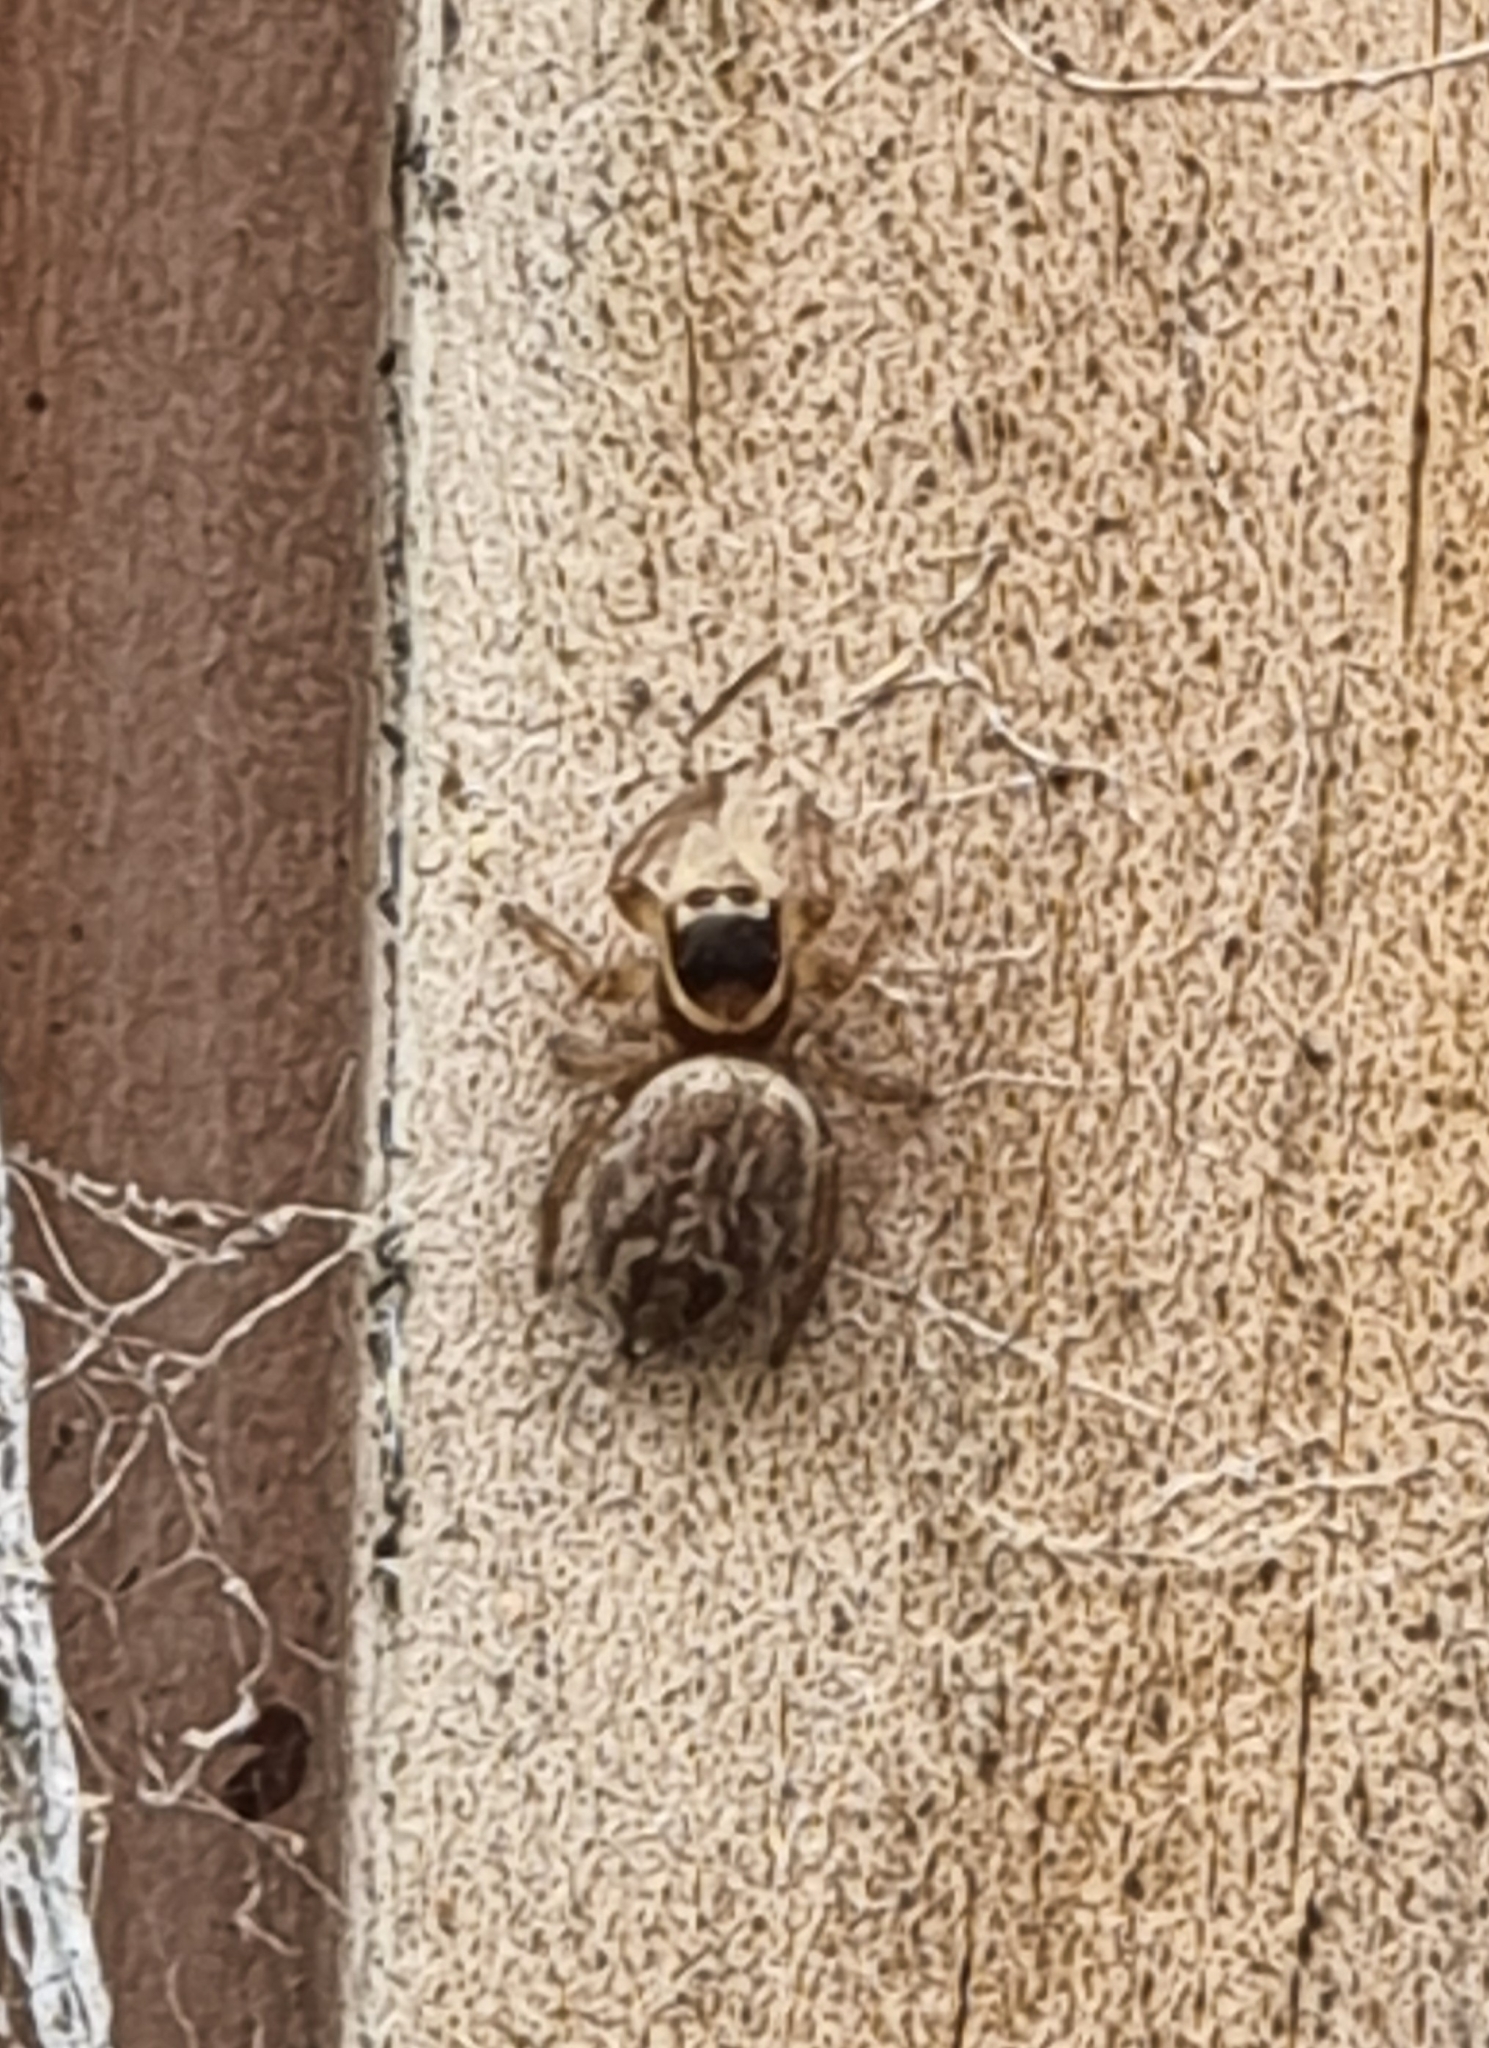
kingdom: Animalia
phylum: Arthropoda
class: Arachnida
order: Araneae
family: Salticidae
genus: Maratus
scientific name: Maratus griseus
